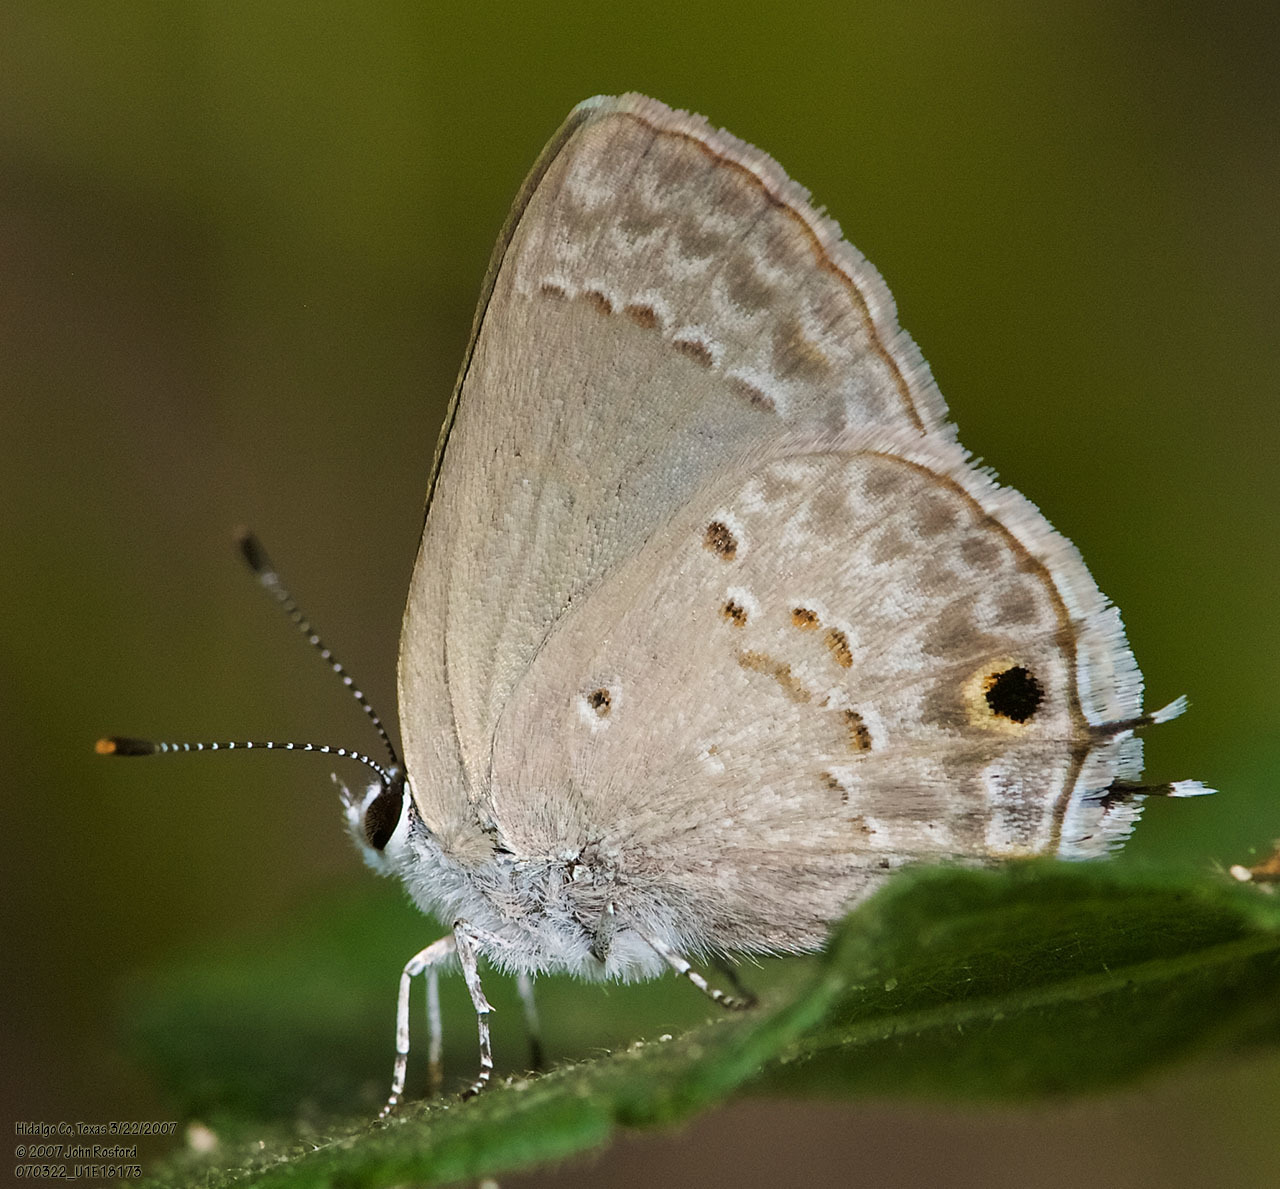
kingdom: Animalia
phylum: Arthropoda
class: Insecta
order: Lepidoptera
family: Lycaenidae
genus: Callicista
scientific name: Callicista columella
